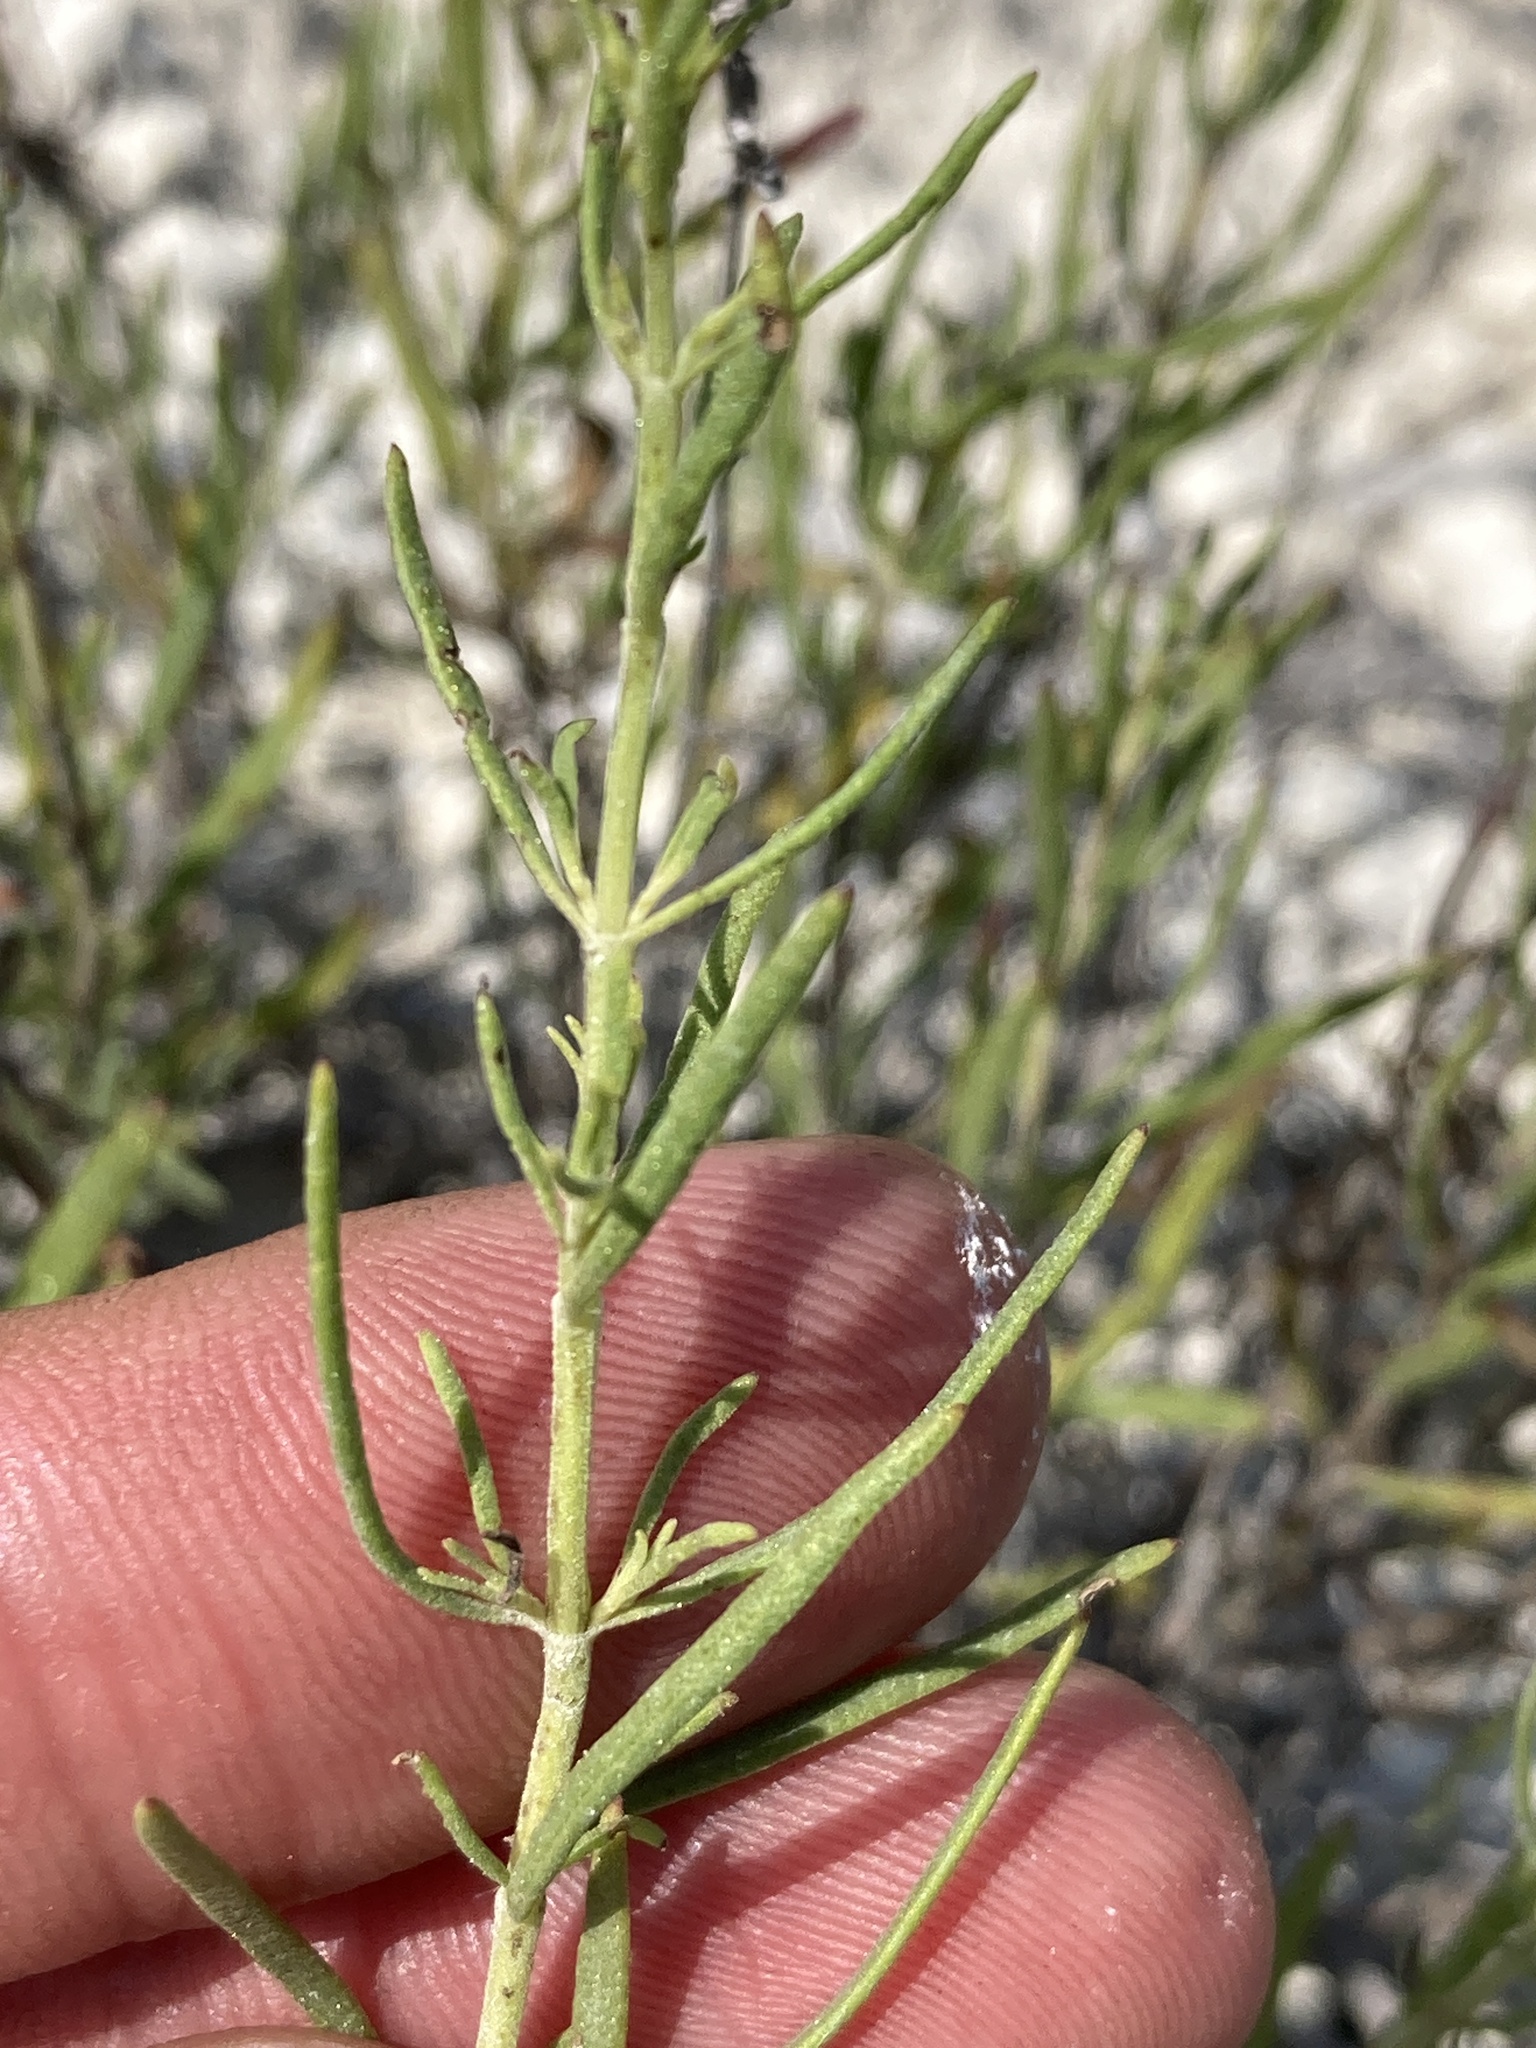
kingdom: Plantae
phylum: Tracheophyta
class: Magnoliopsida
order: Lamiales
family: Lamiaceae
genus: Hyssopus
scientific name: Hyssopus officinalis
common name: Hyssop
